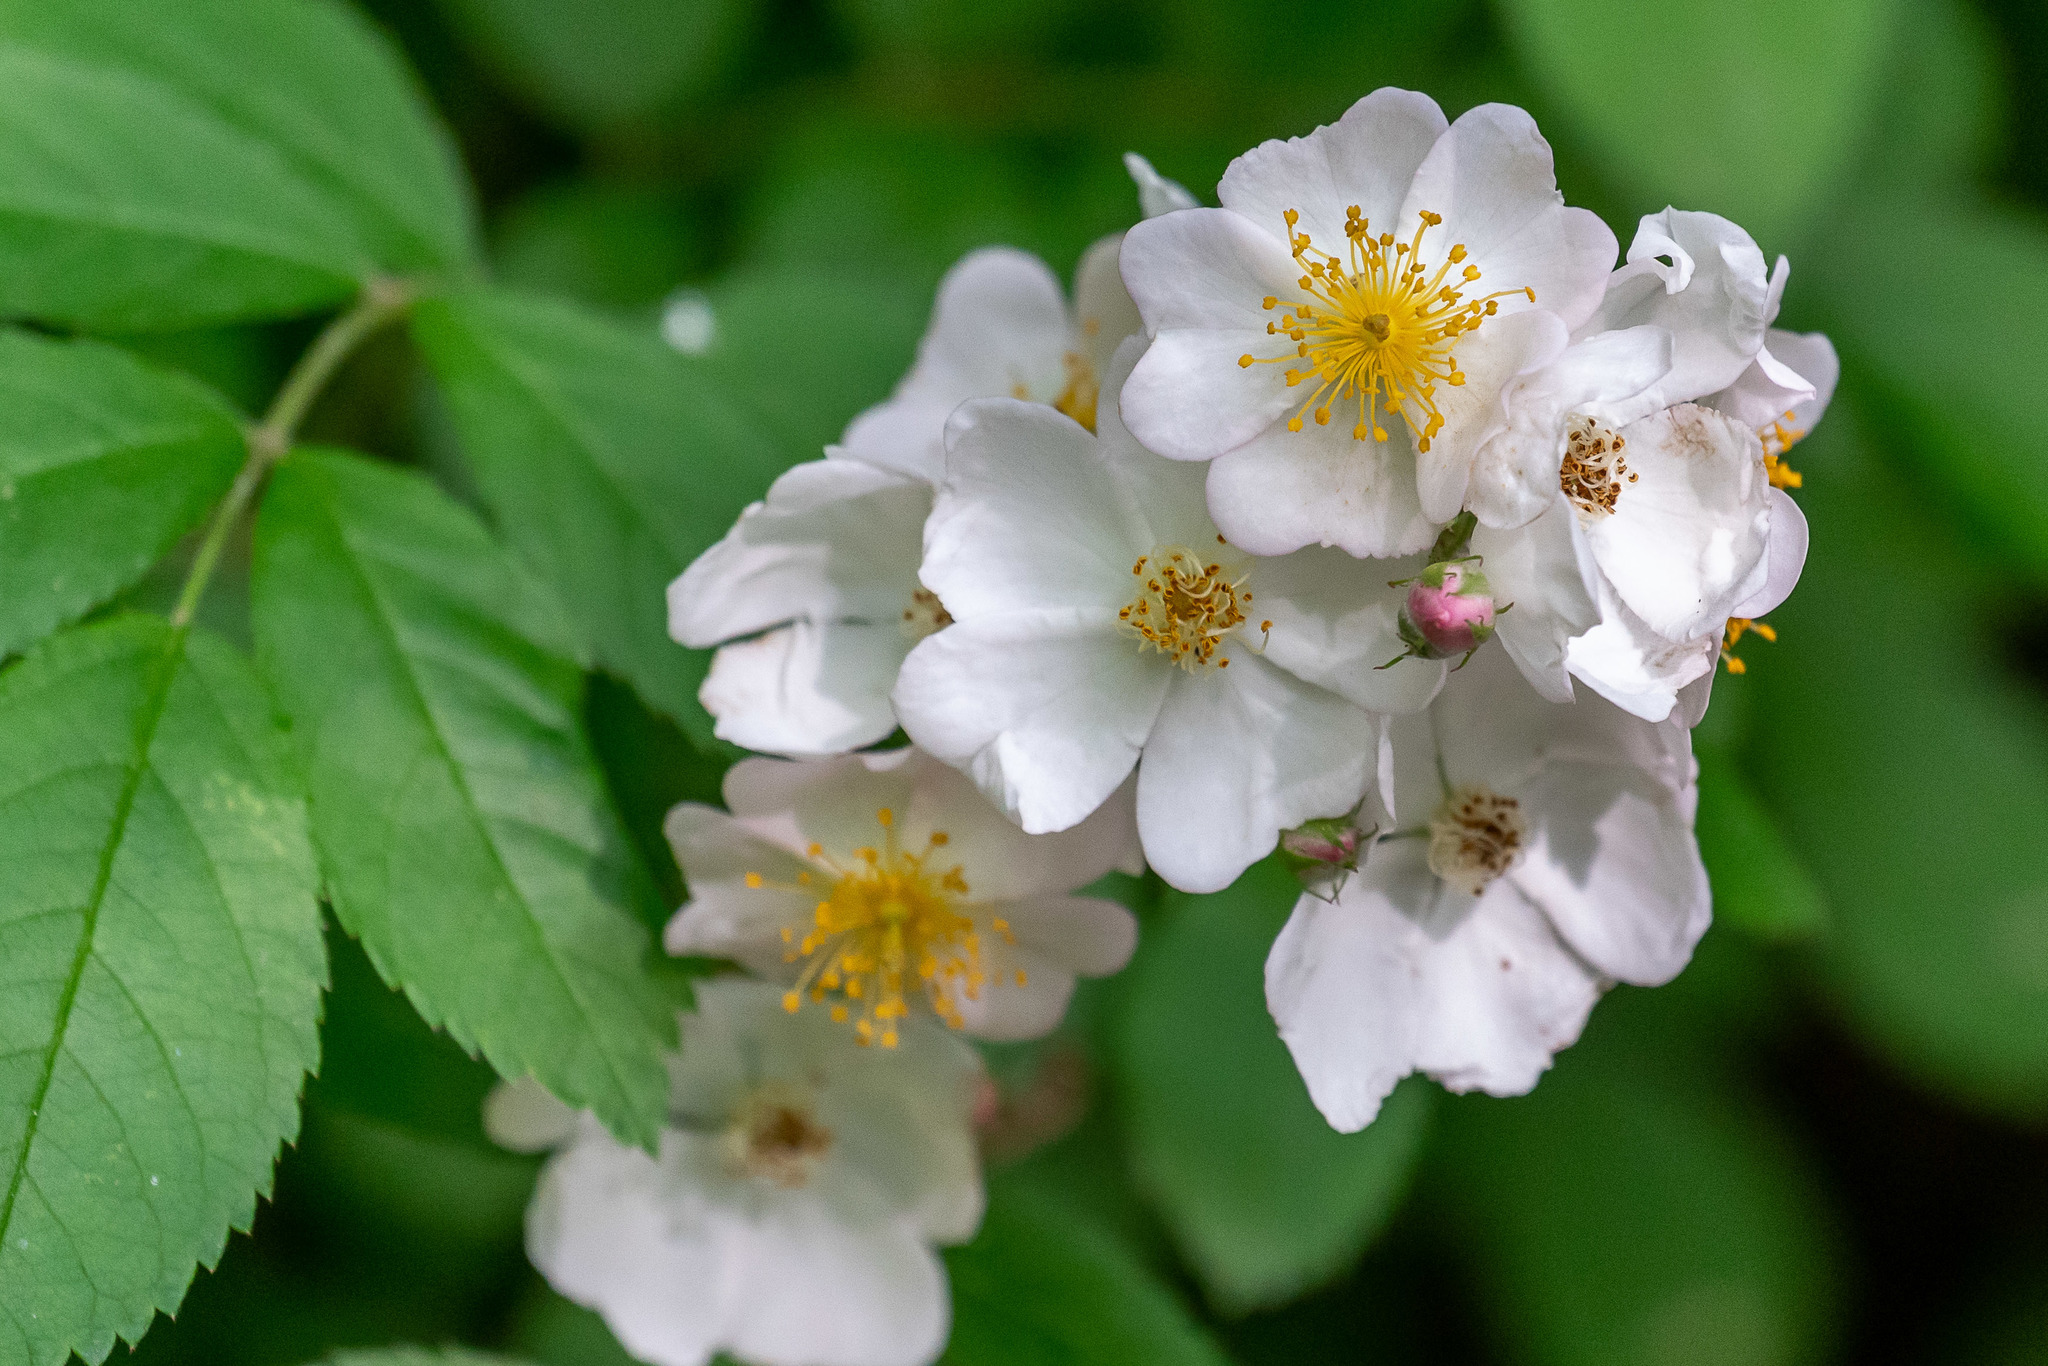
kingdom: Plantae
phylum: Tracheophyta
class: Magnoliopsida
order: Rosales
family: Rosaceae
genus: Rosa
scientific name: Rosa multiflora
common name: Multiflora rose
